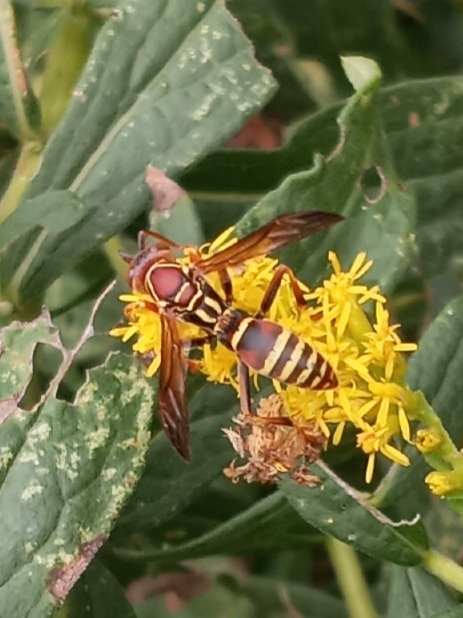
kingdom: Animalia
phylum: Arthropoda
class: Insecta
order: Hymenoptera
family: Eumenidae
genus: Polistes
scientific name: Polistes dorsalis
